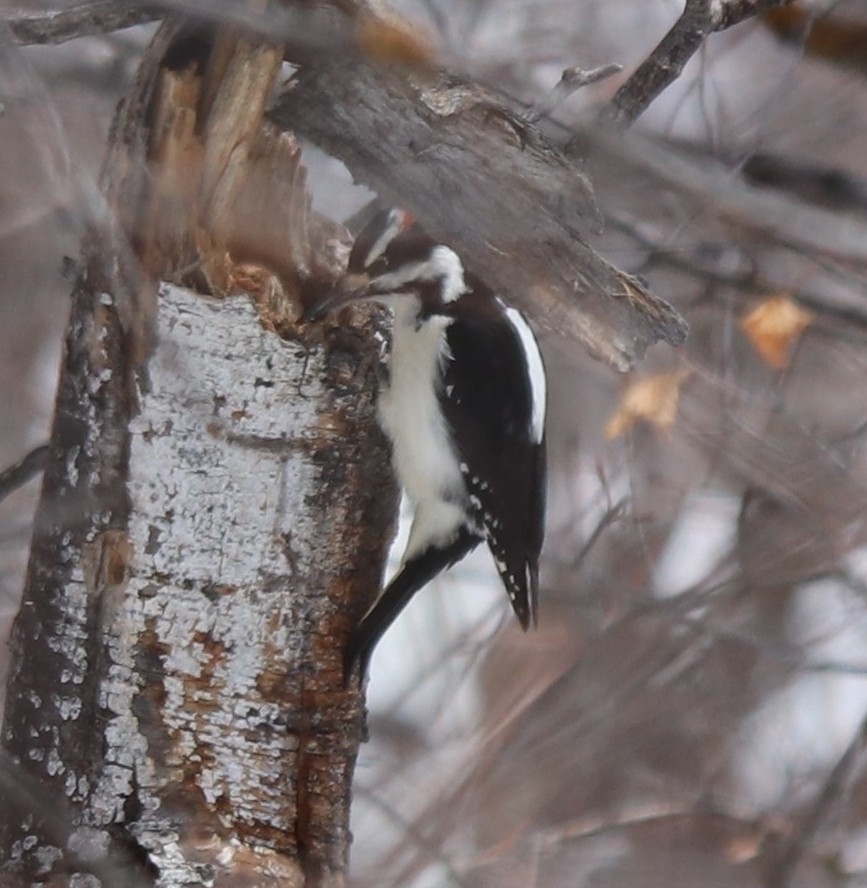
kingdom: Animalia
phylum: Chordata
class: Aves
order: Piciformes
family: Picidae
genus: Leuconotopicus
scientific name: Leuconotopicus villosus
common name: Hairy woodpecker
